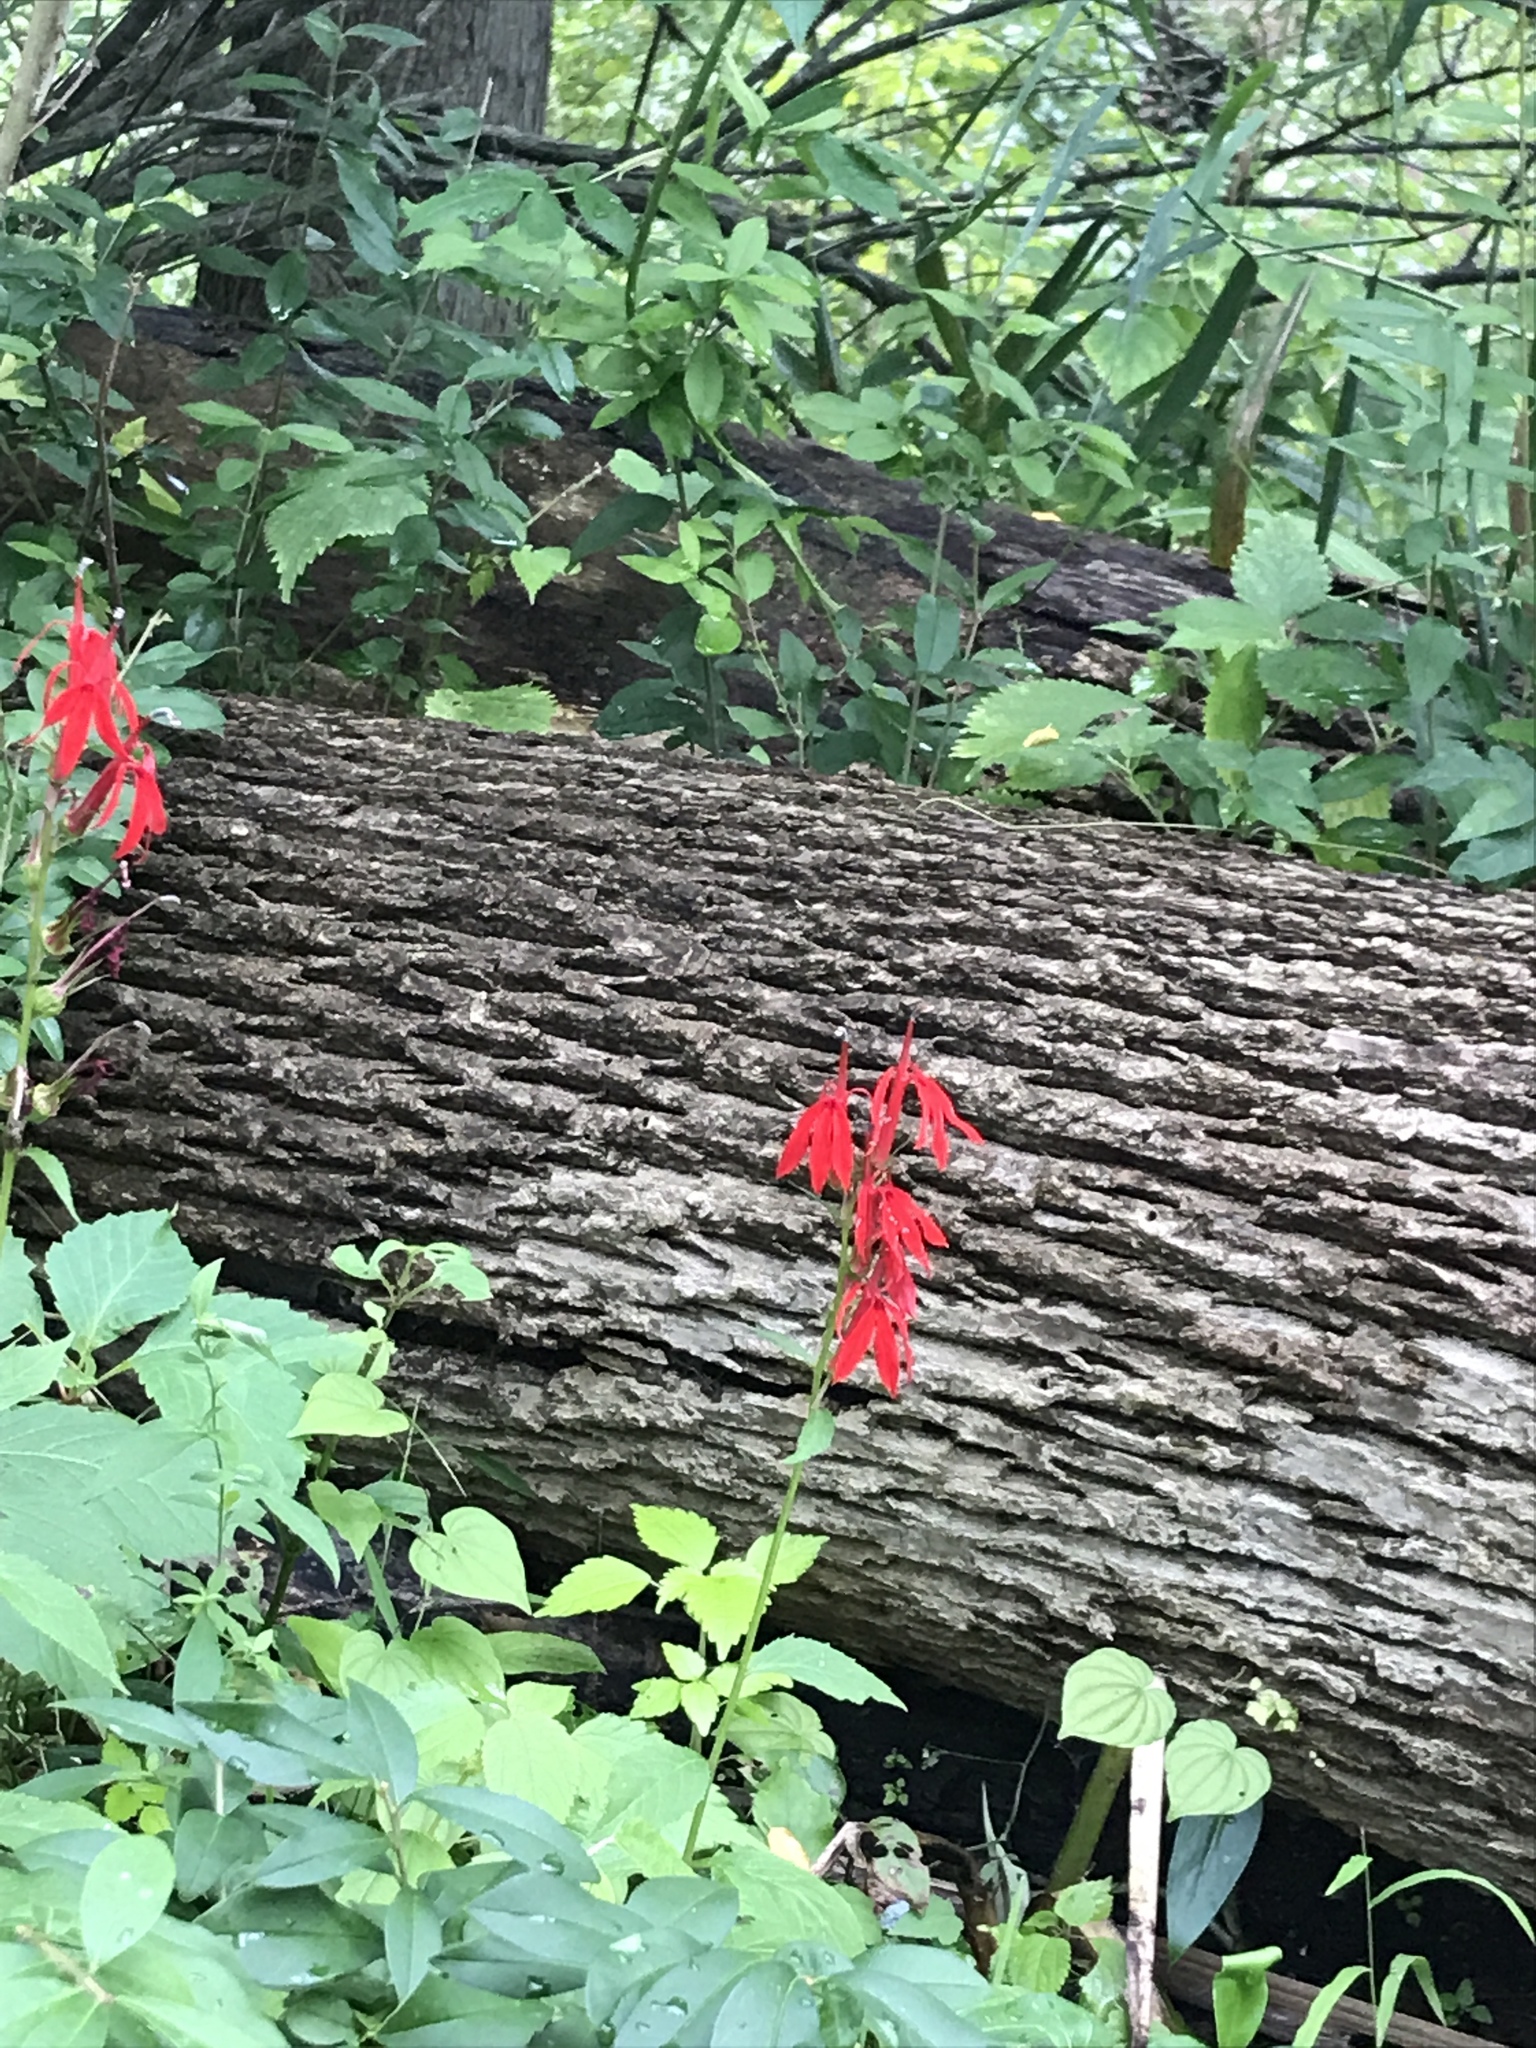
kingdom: Plantae
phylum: Tracheophyta
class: Magnoliopsida
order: Asterales
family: Campanulaceae
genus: Lobelia
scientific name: Lobelia cardinalis
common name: Cardinal flower
